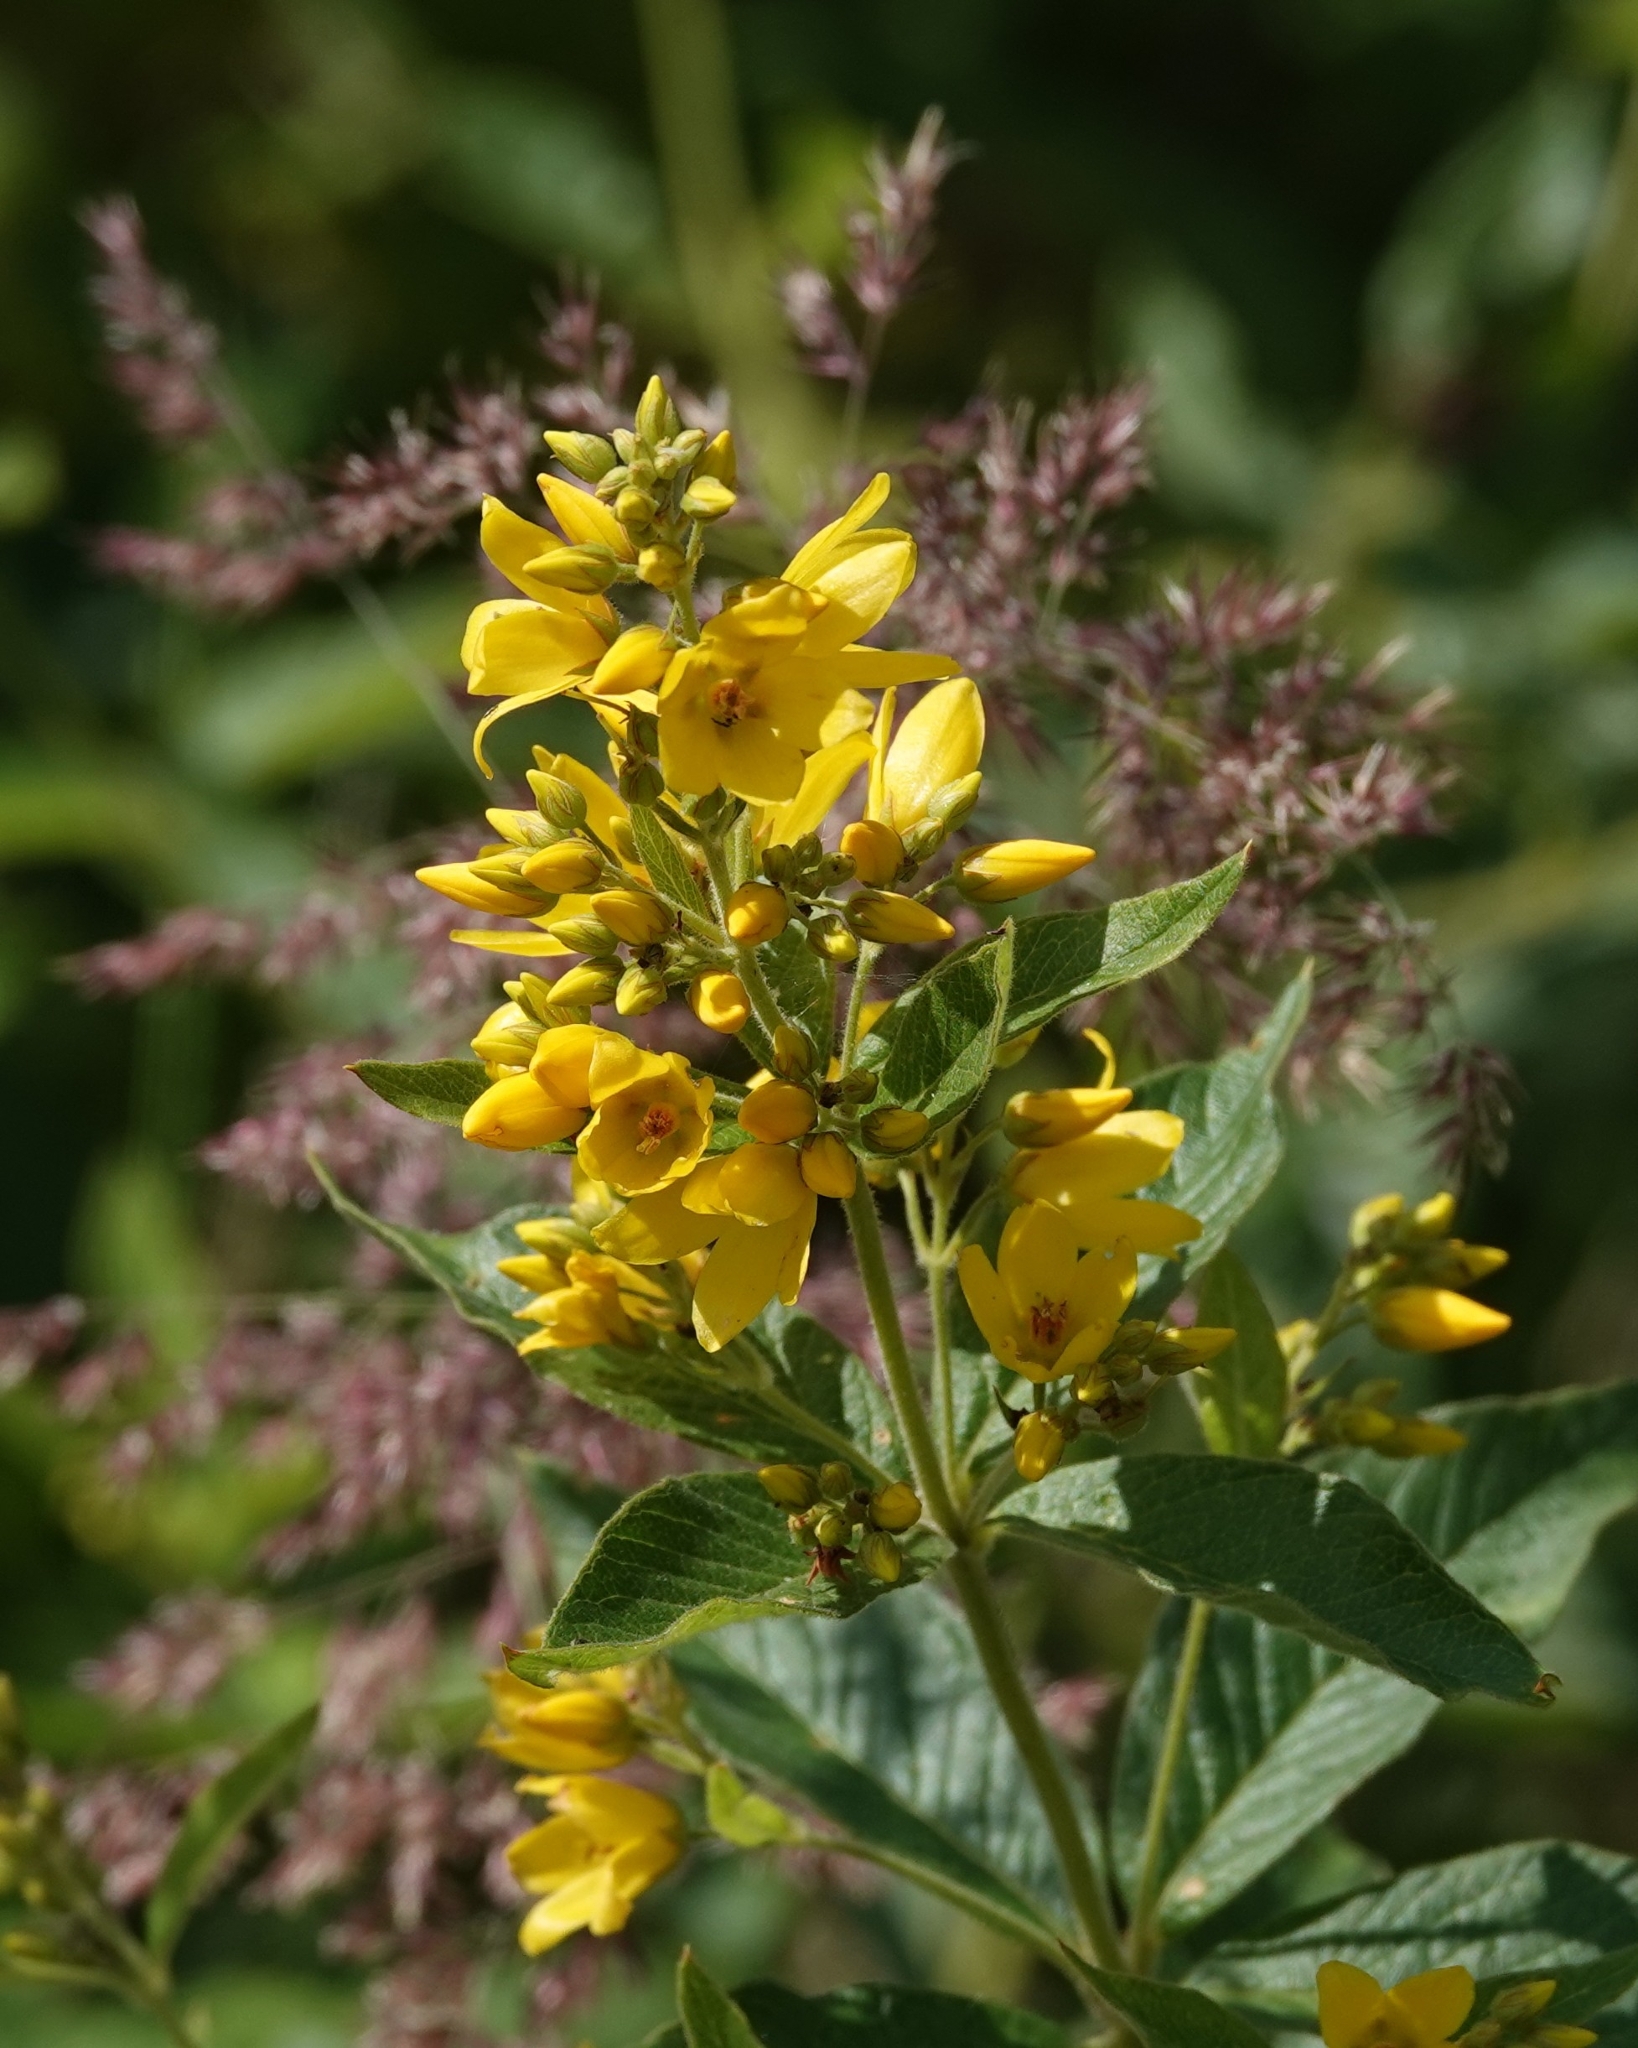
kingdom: Plantae
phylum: Tracheophyta
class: Magnoliopsida
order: Ericales
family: Primulaceae
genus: Lysimachia
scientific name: Lysimachia vulgaris
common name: Yellow loosestrife
